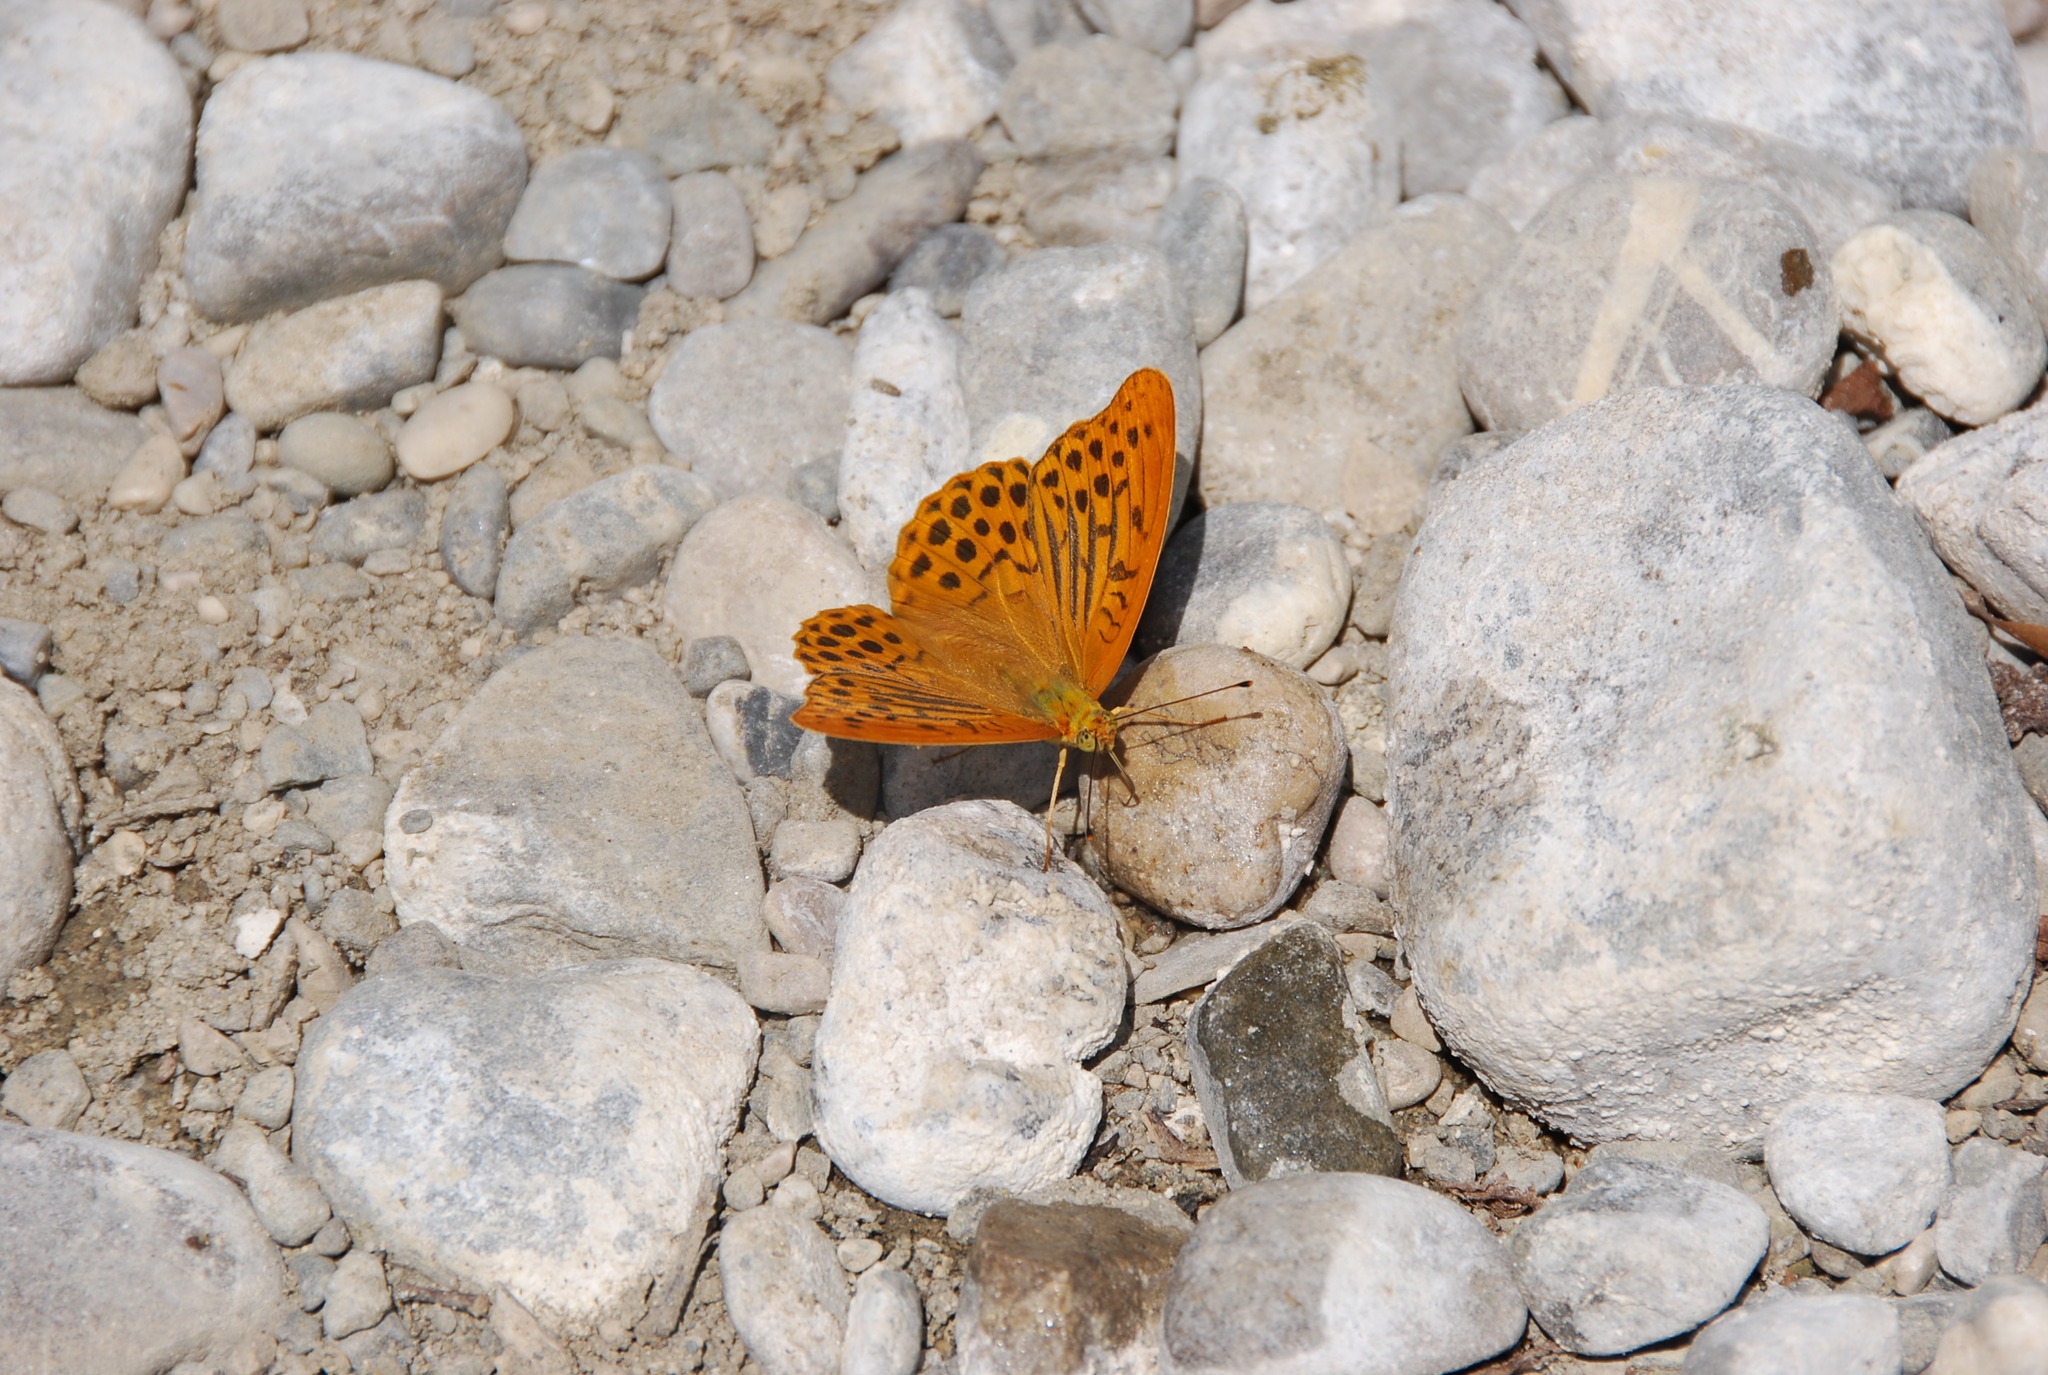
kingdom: Animalia
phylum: Arthropoda
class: Insecta
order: Lepidoptera
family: Nymphalidae
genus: Argynnis
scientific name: Argynnis paphia
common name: Silver-washed fritillary
